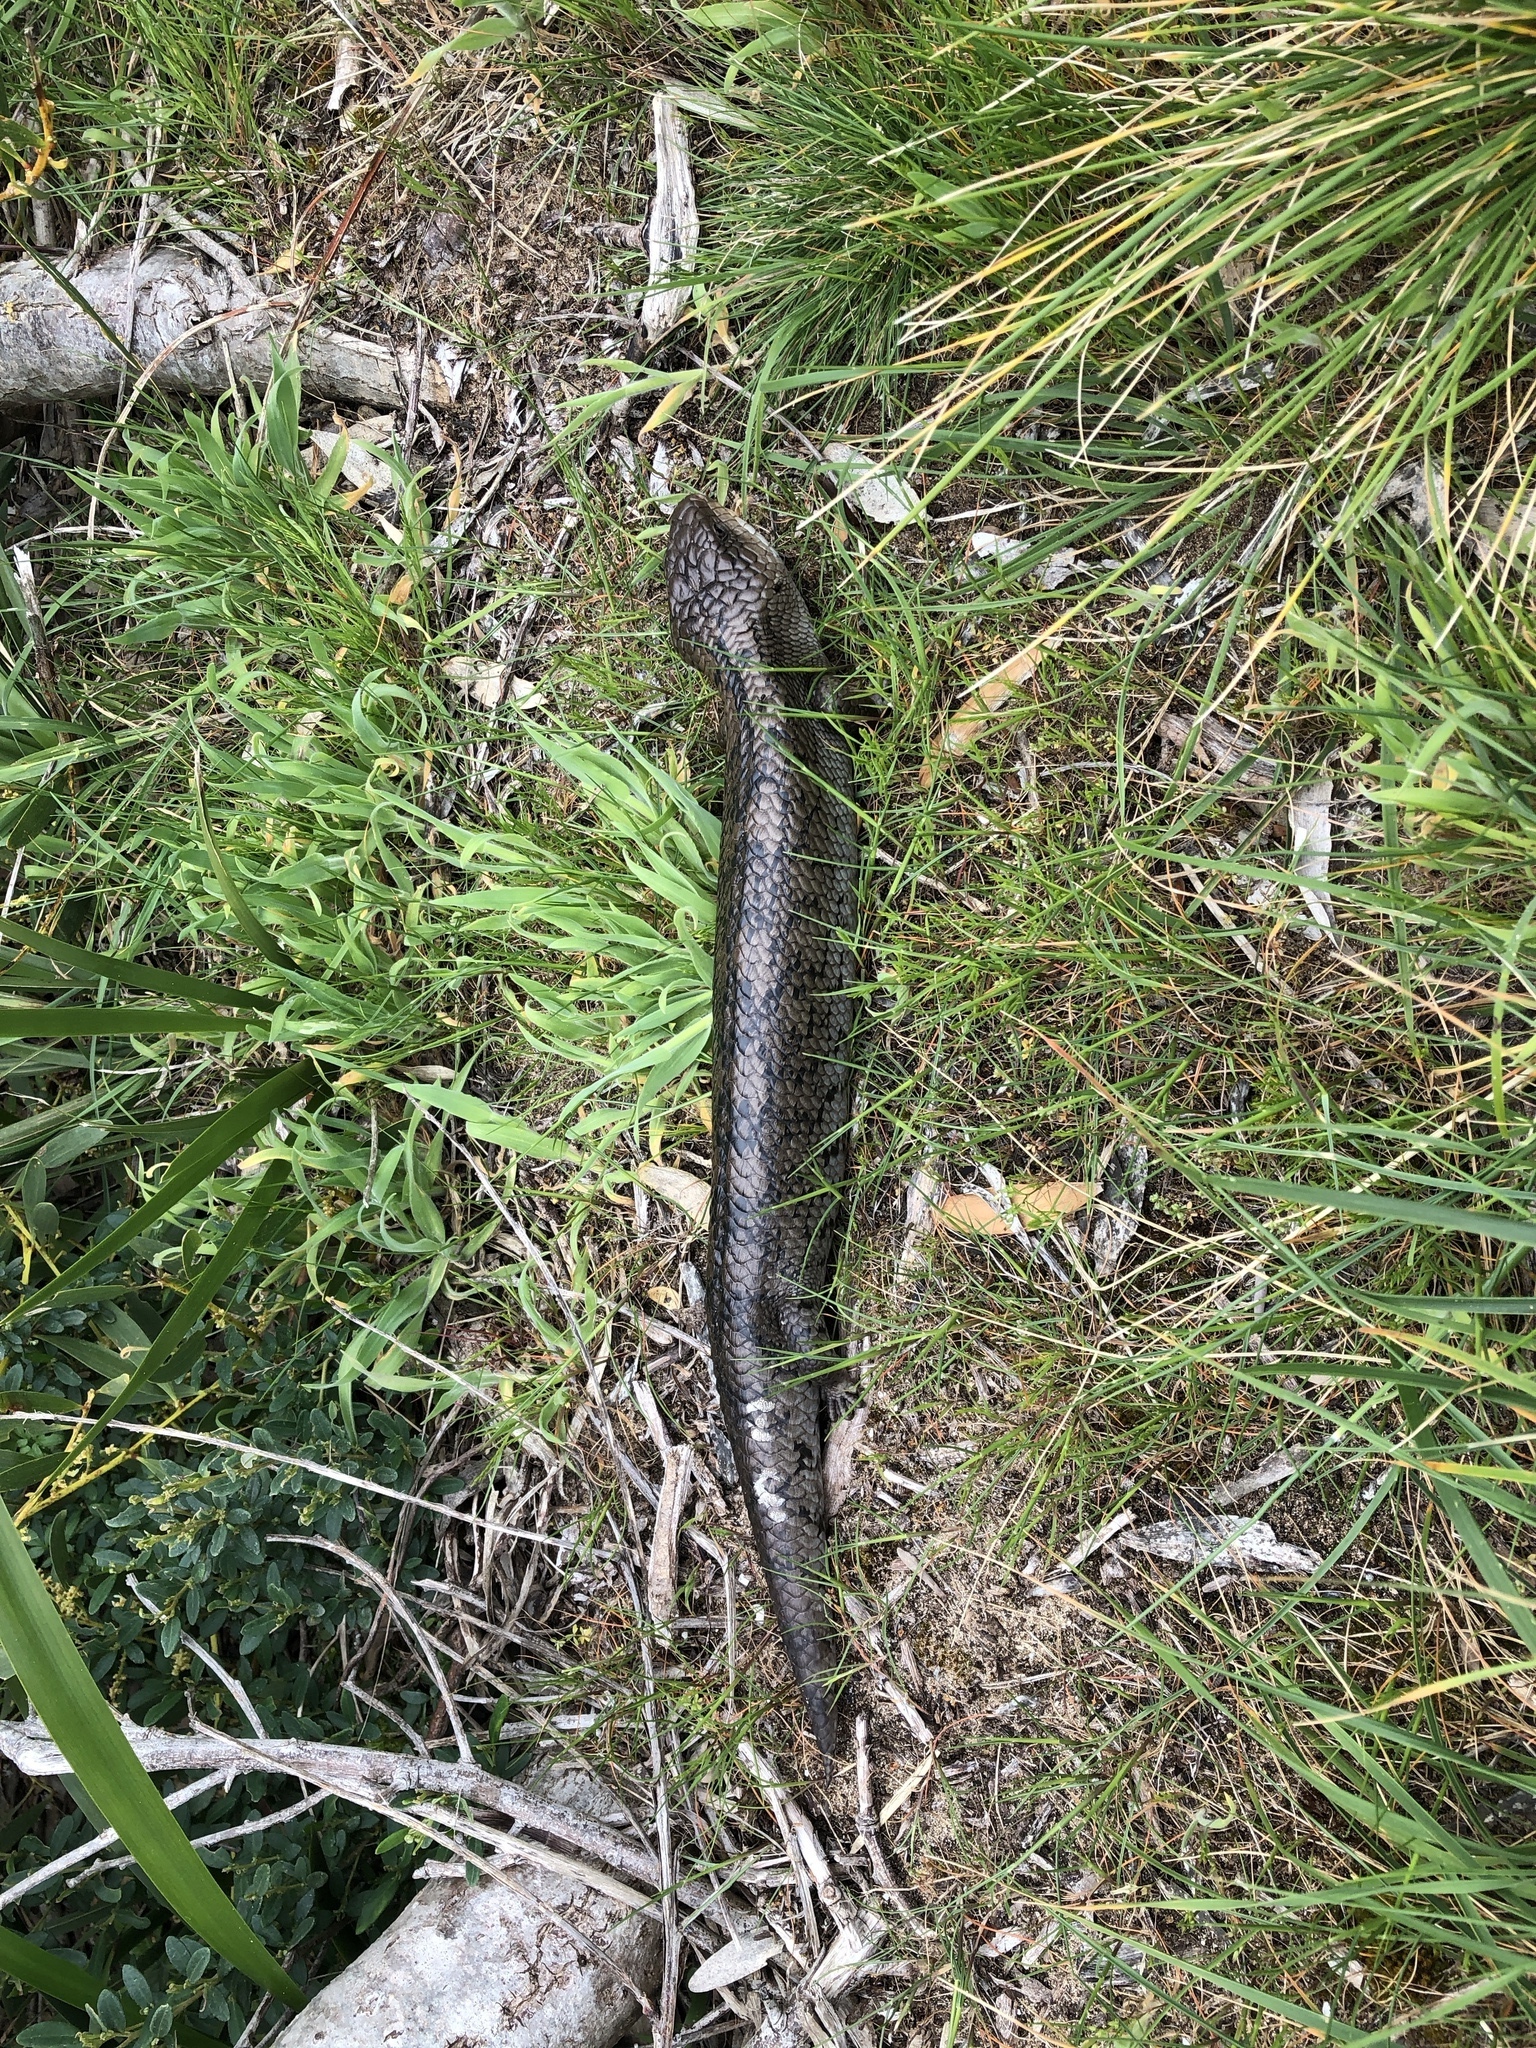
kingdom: Animalia
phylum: Chordata
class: Squamata
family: Scincidae
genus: Tiliqua
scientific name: Tiliqua nigrolutea
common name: Blotched blue-tongued lizard
